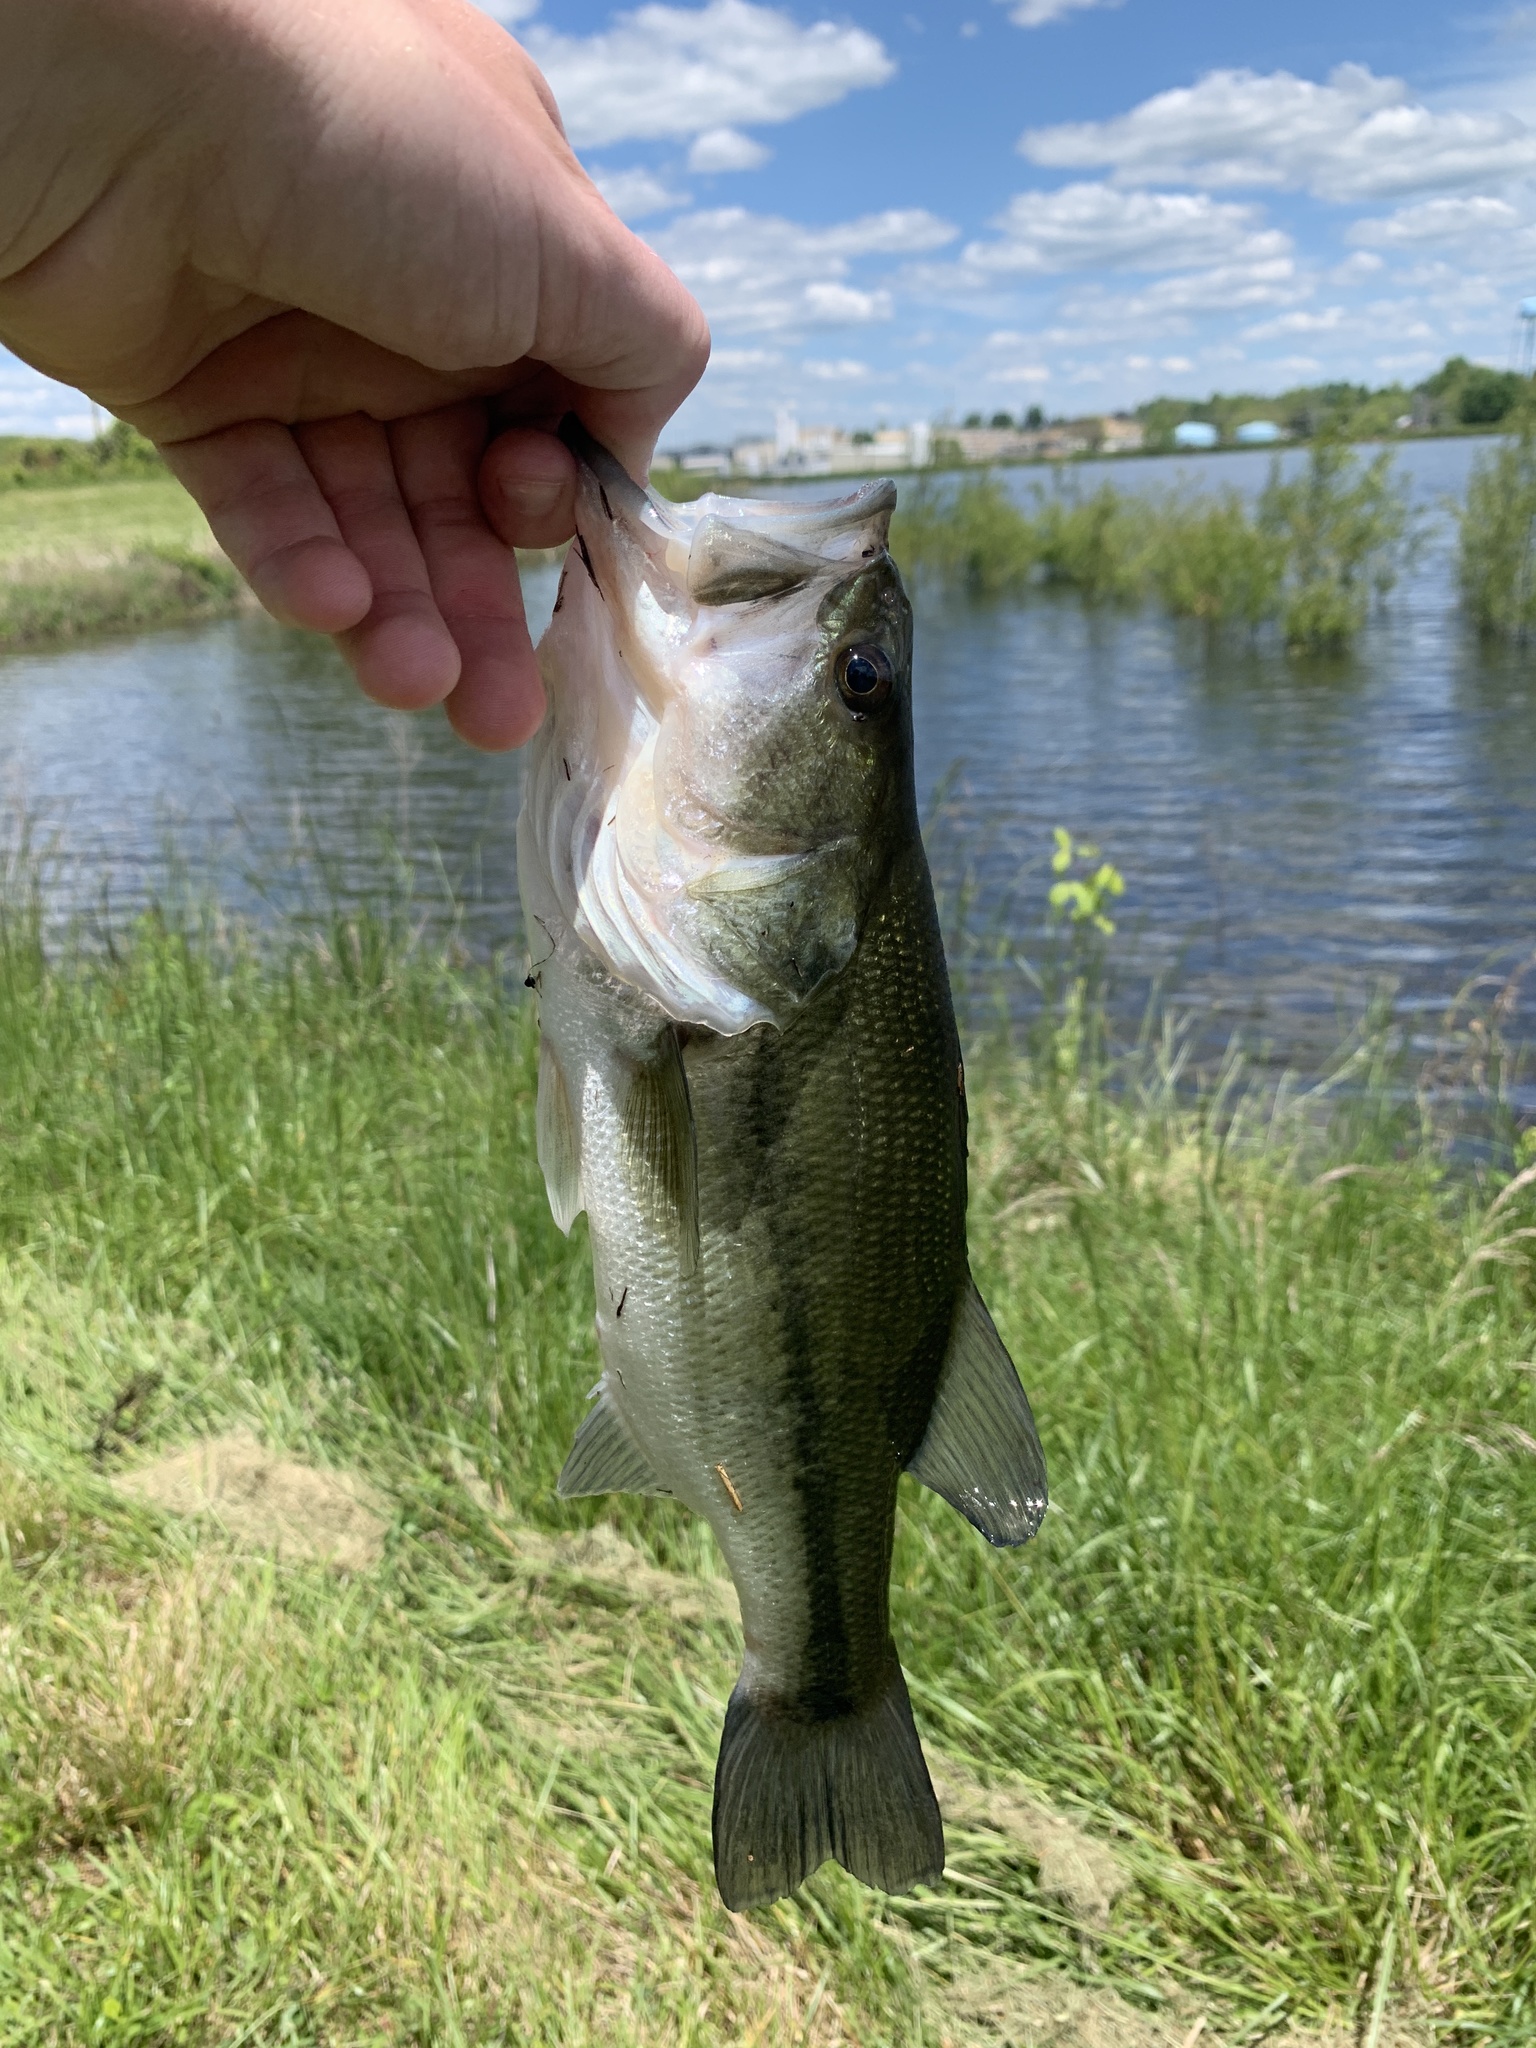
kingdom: Animalia
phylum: Chordata
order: Perciformes
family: Centrarchidae
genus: Micropterus
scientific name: Micropterus
